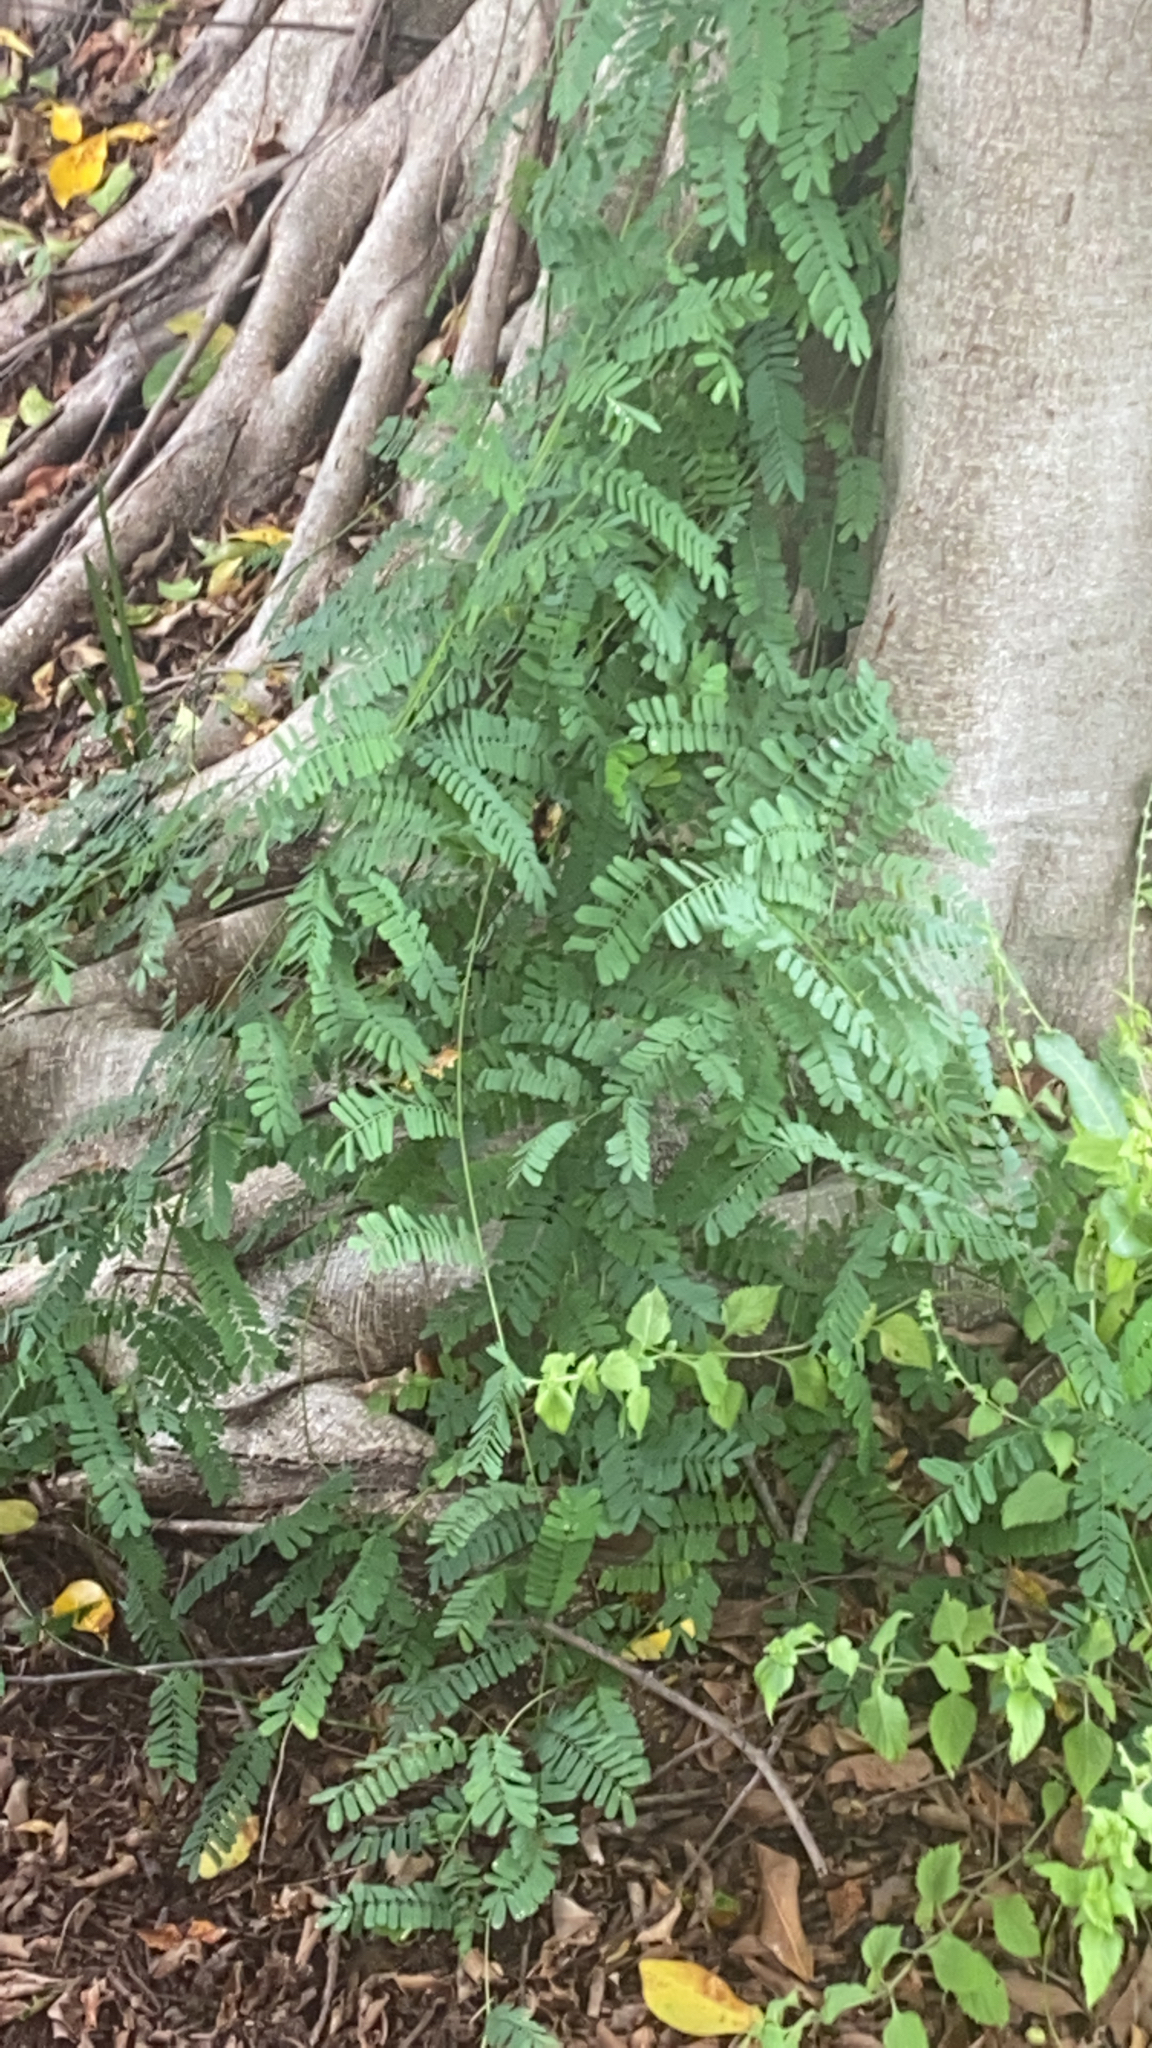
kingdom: Plantae
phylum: Tracheophyta
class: Magnoliopsida
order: Fabales
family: Fabaceae
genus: Abrus
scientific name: Abrus precatorius
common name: Rosarypea
